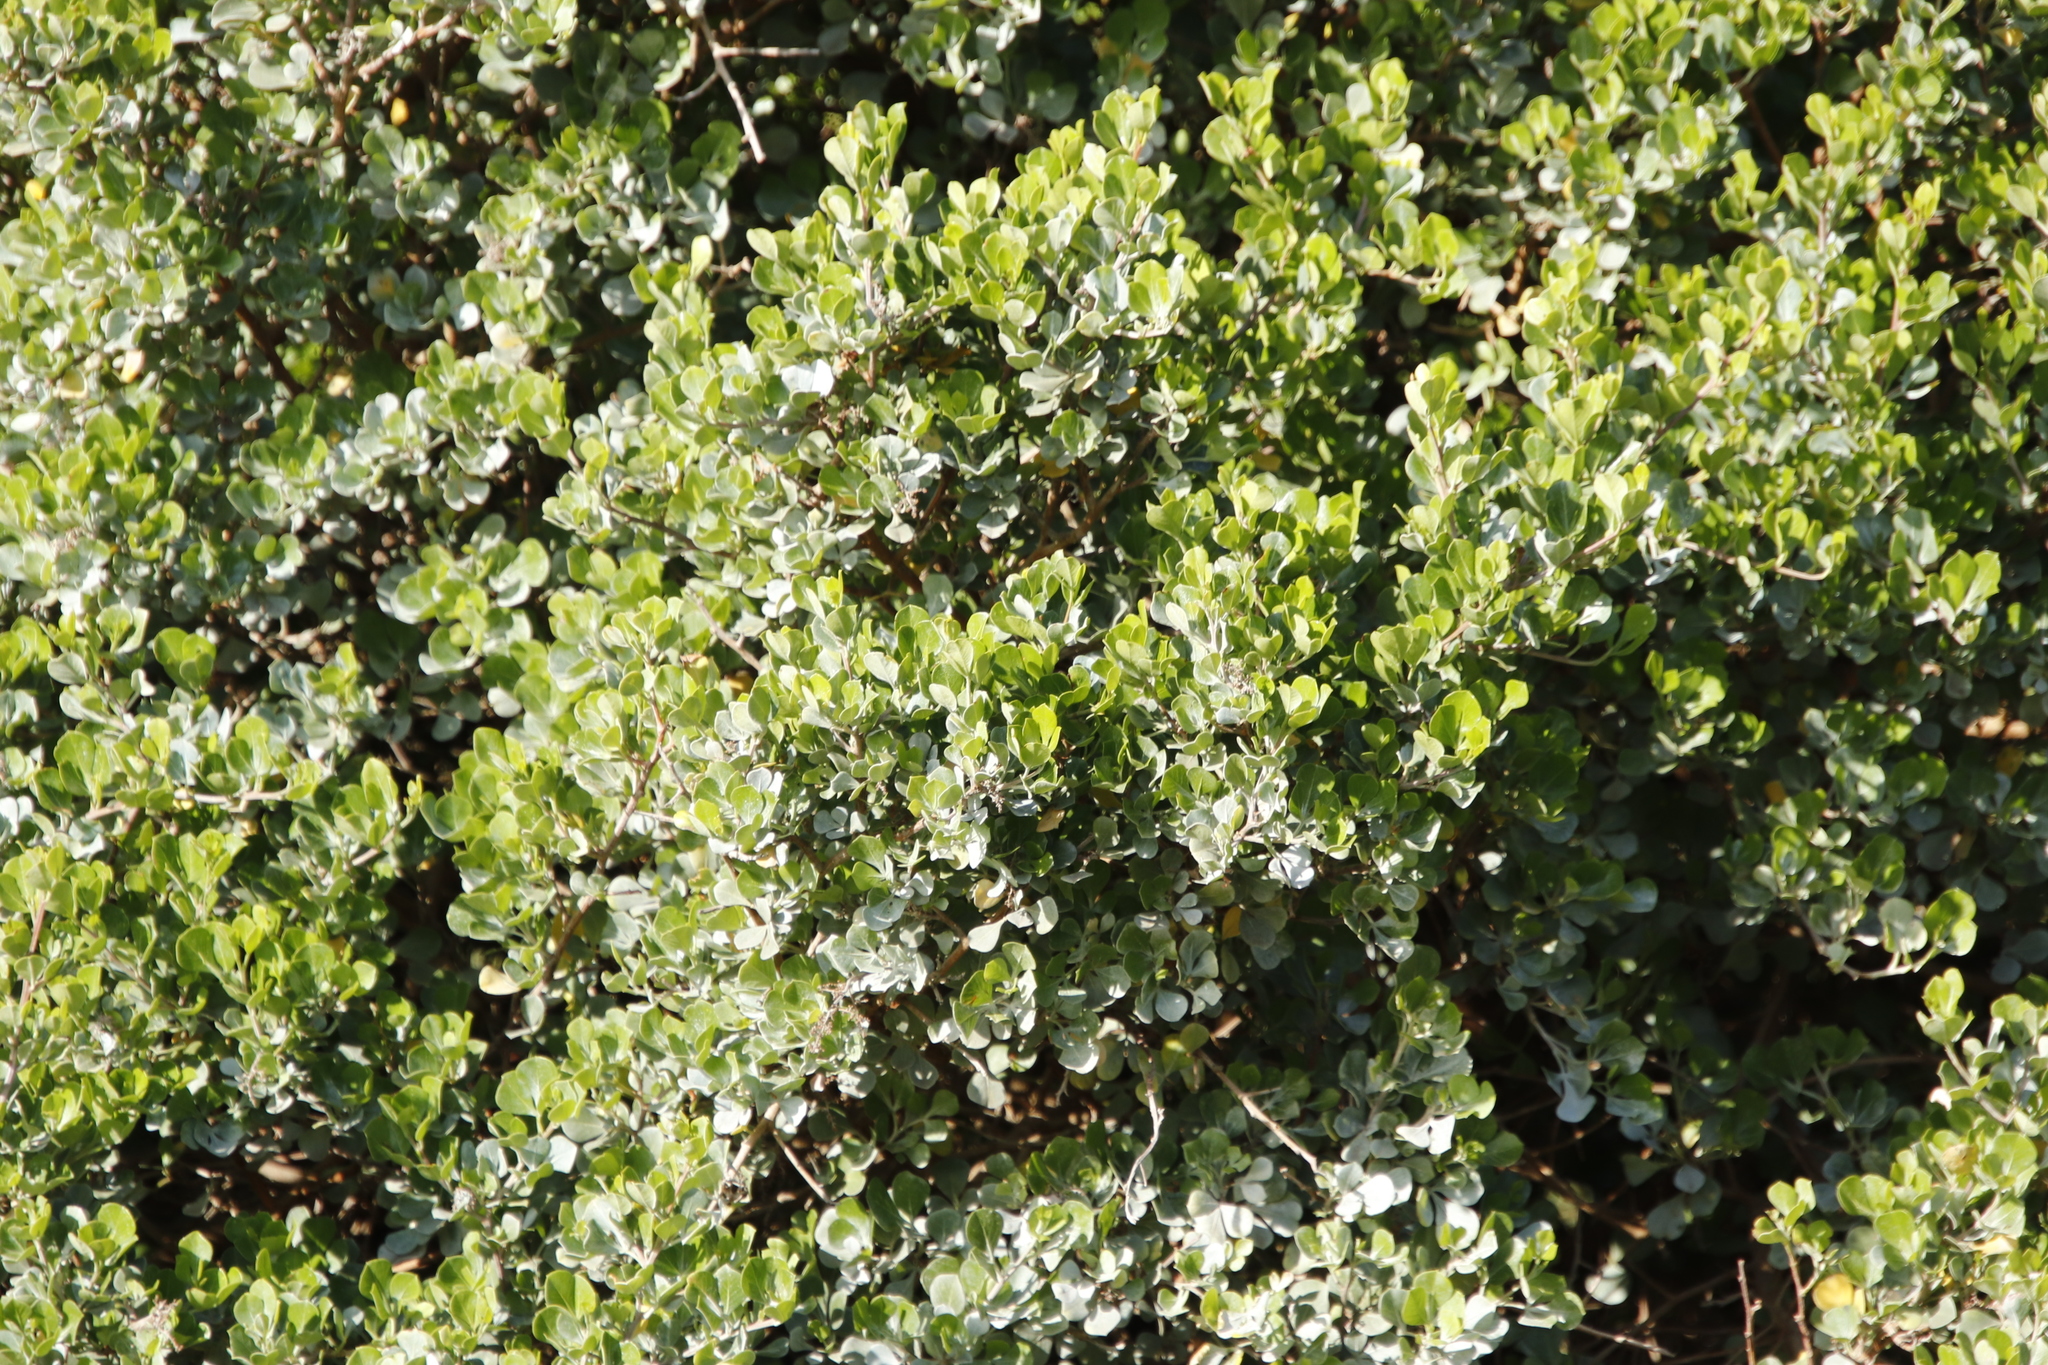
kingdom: Plantae
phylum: Tracheophyta
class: Magnoliopsida
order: Sapindales
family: Anacardiaceae
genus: Searsia
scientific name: Searsia glauca
